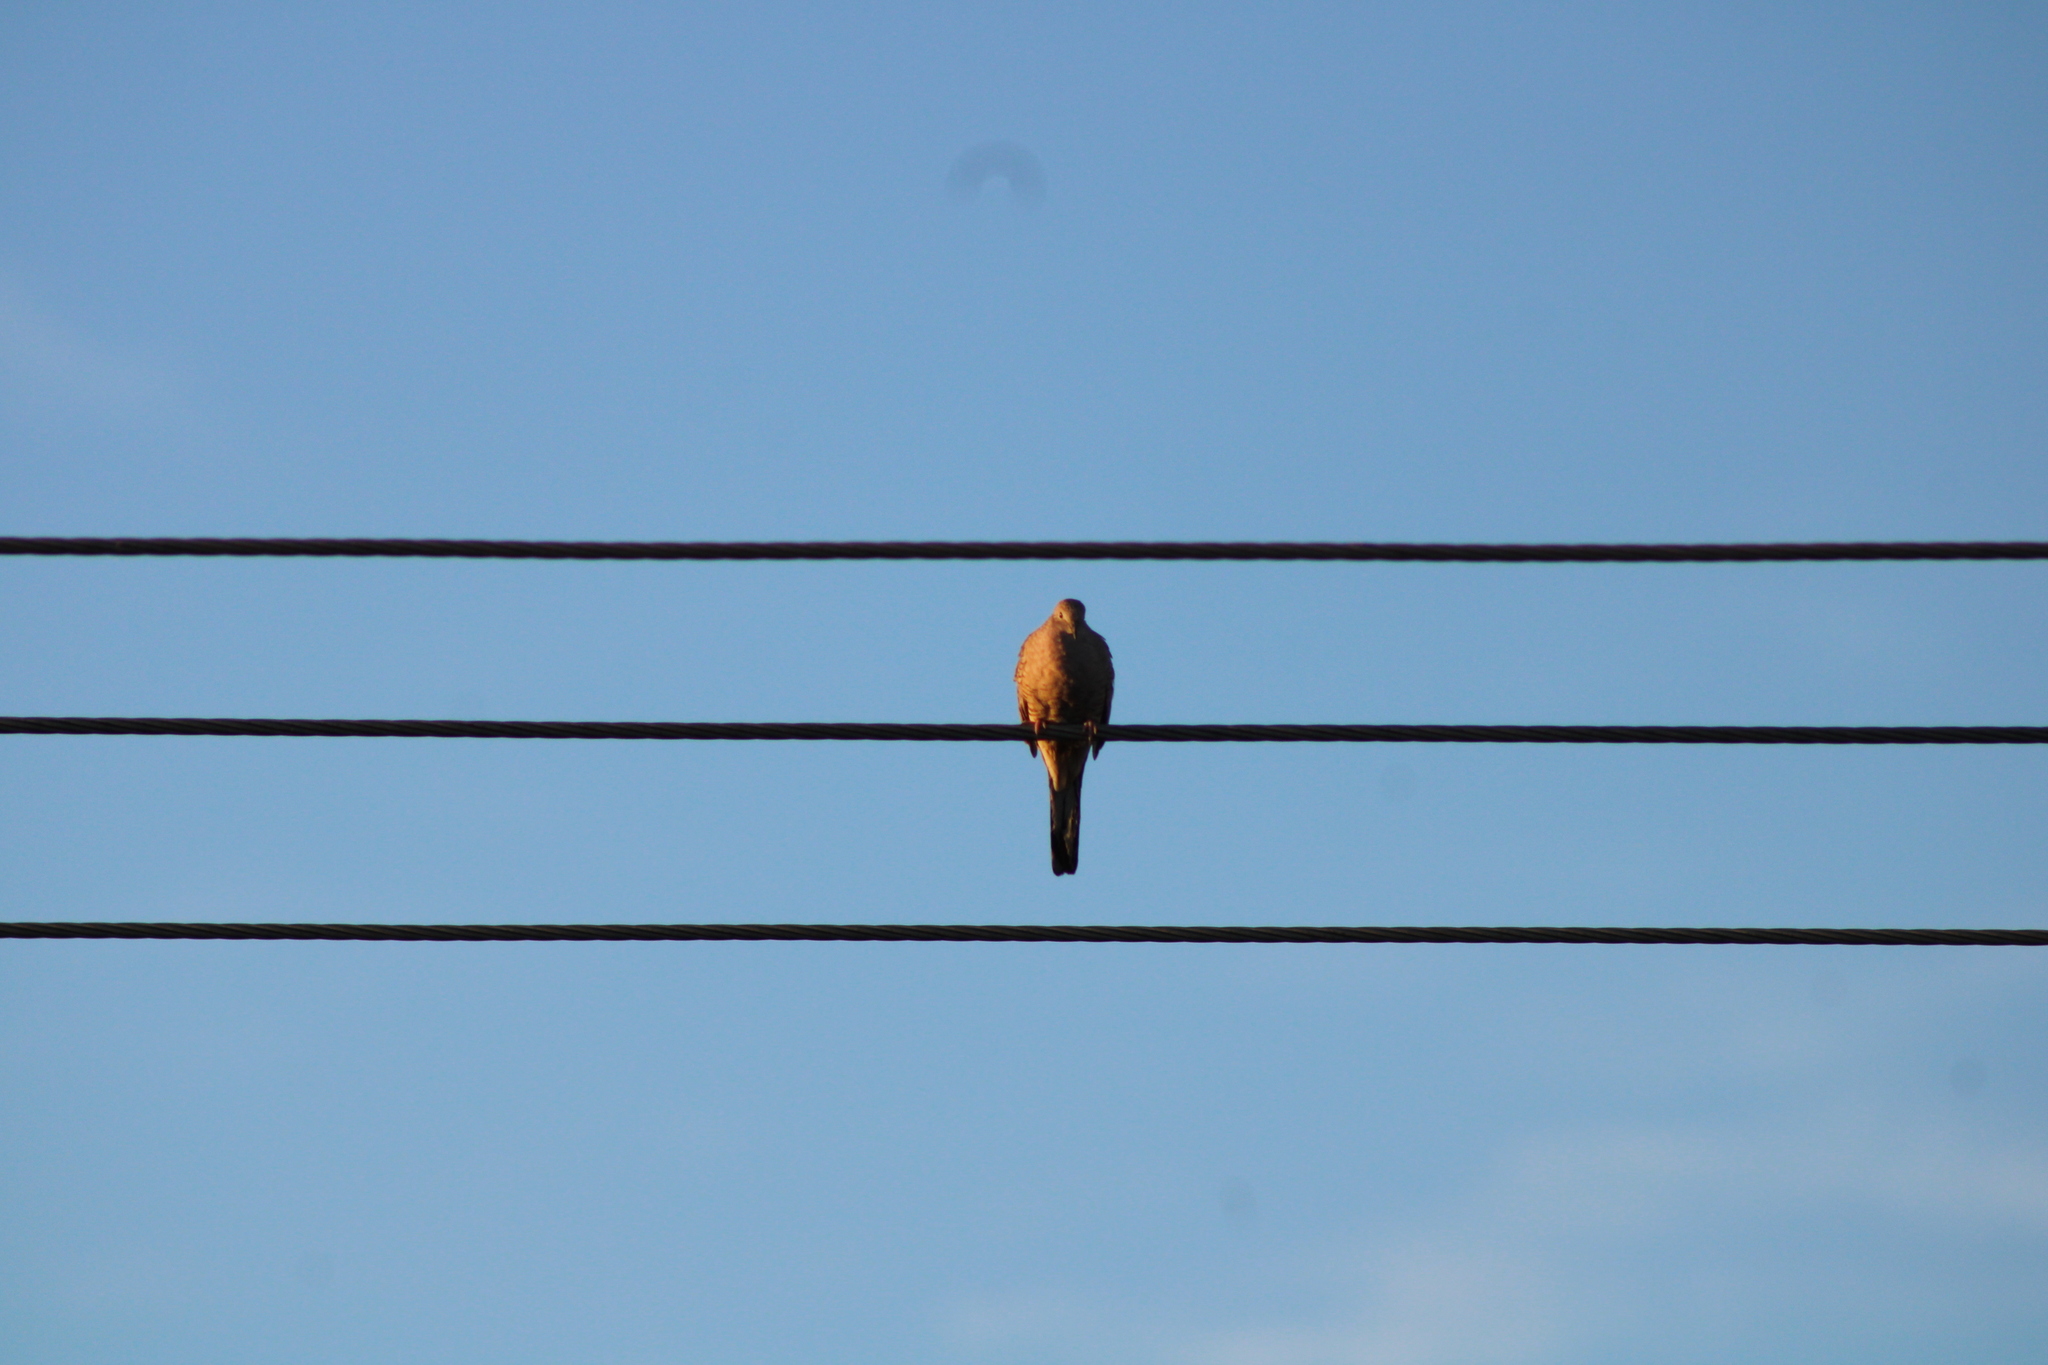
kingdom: Animalia
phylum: Chordata
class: Aves
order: Columbiformes
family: Columbidae
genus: Columbina
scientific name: Columbina inca
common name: Inca dove
